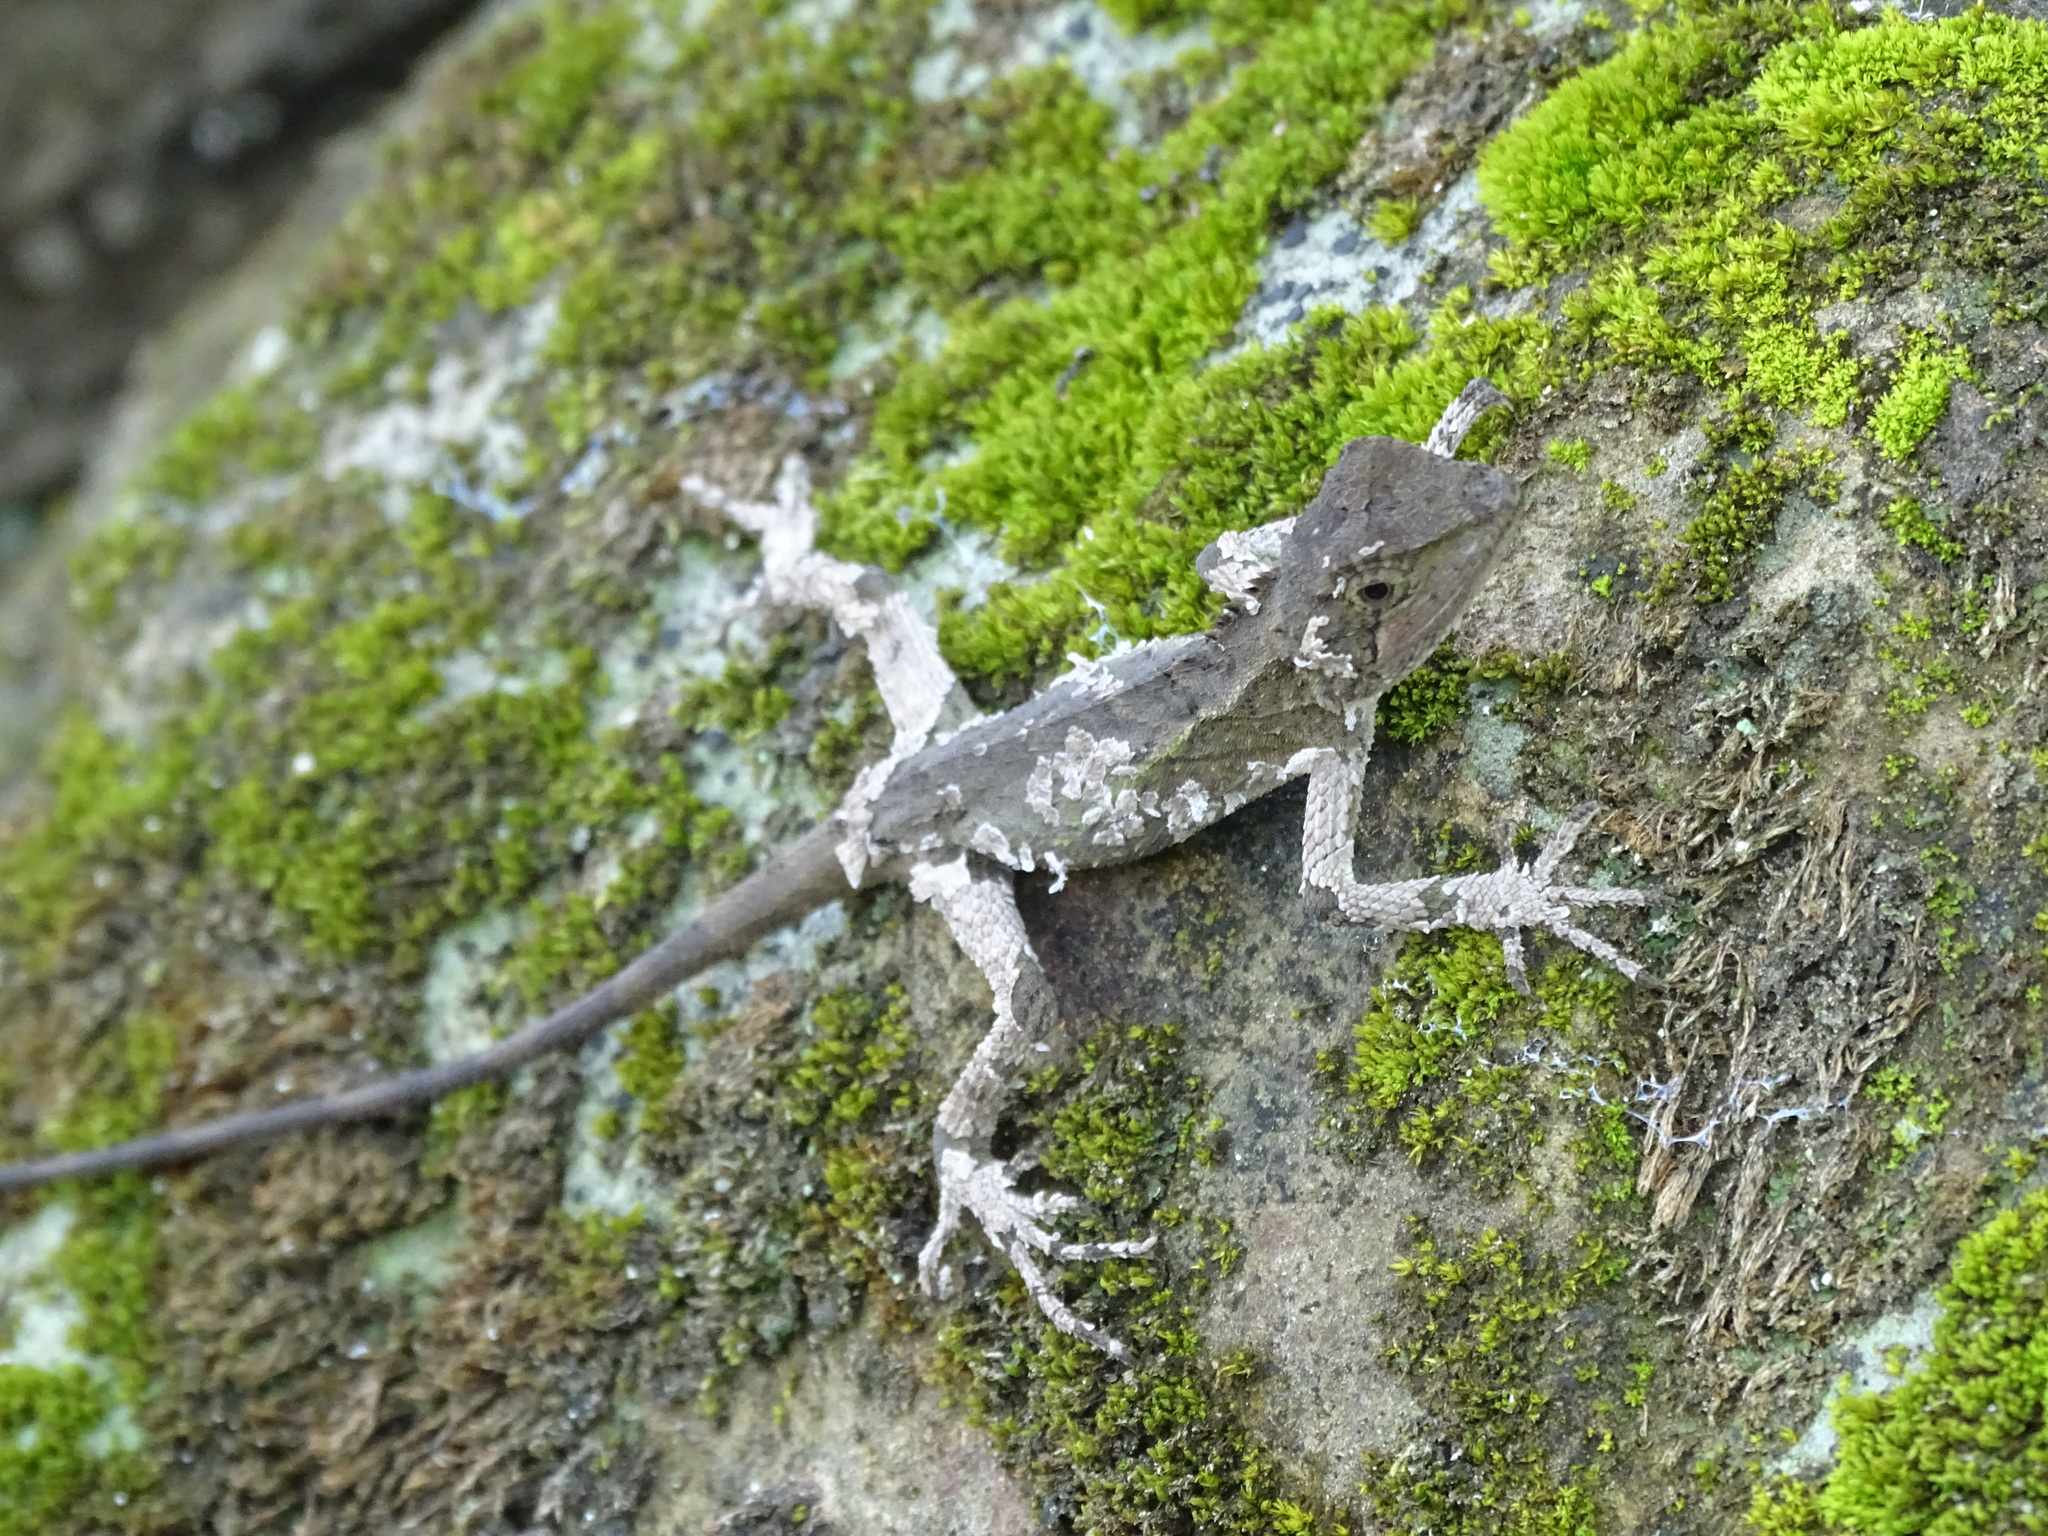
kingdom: Animalia
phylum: Chordata
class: Squamata
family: Agamidae
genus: Diploderma
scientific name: Diploderma swinhonis
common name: Taiwan japalure
